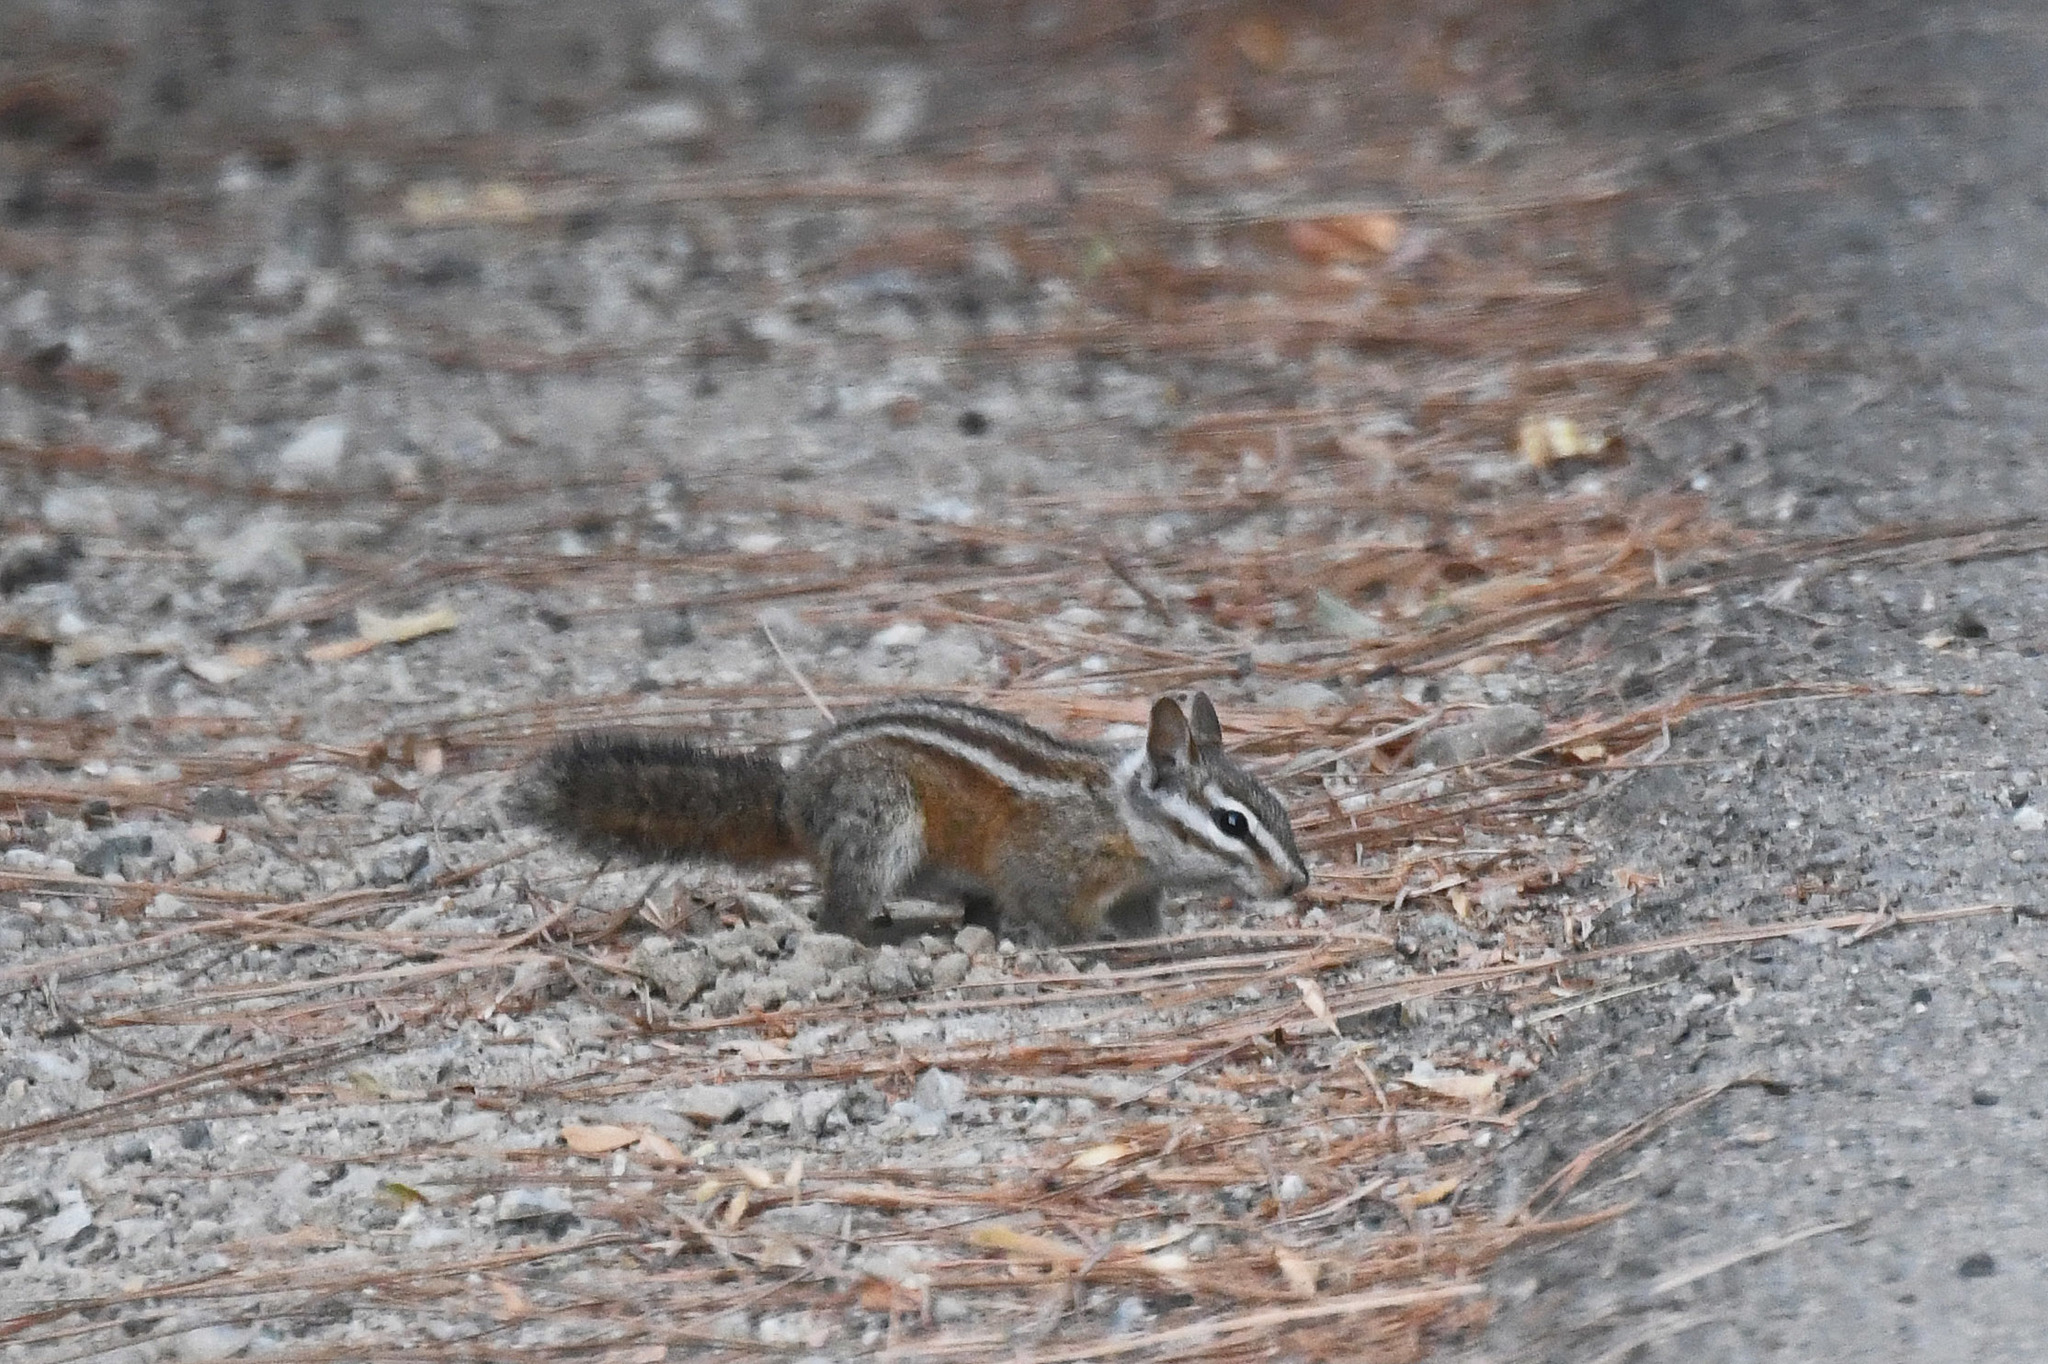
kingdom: Animalia
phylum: Chordata
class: Mammalia
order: Rodentia
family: Sciuridae
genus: Tamias
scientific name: Tamias merriami
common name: Merriam's chipmunk
